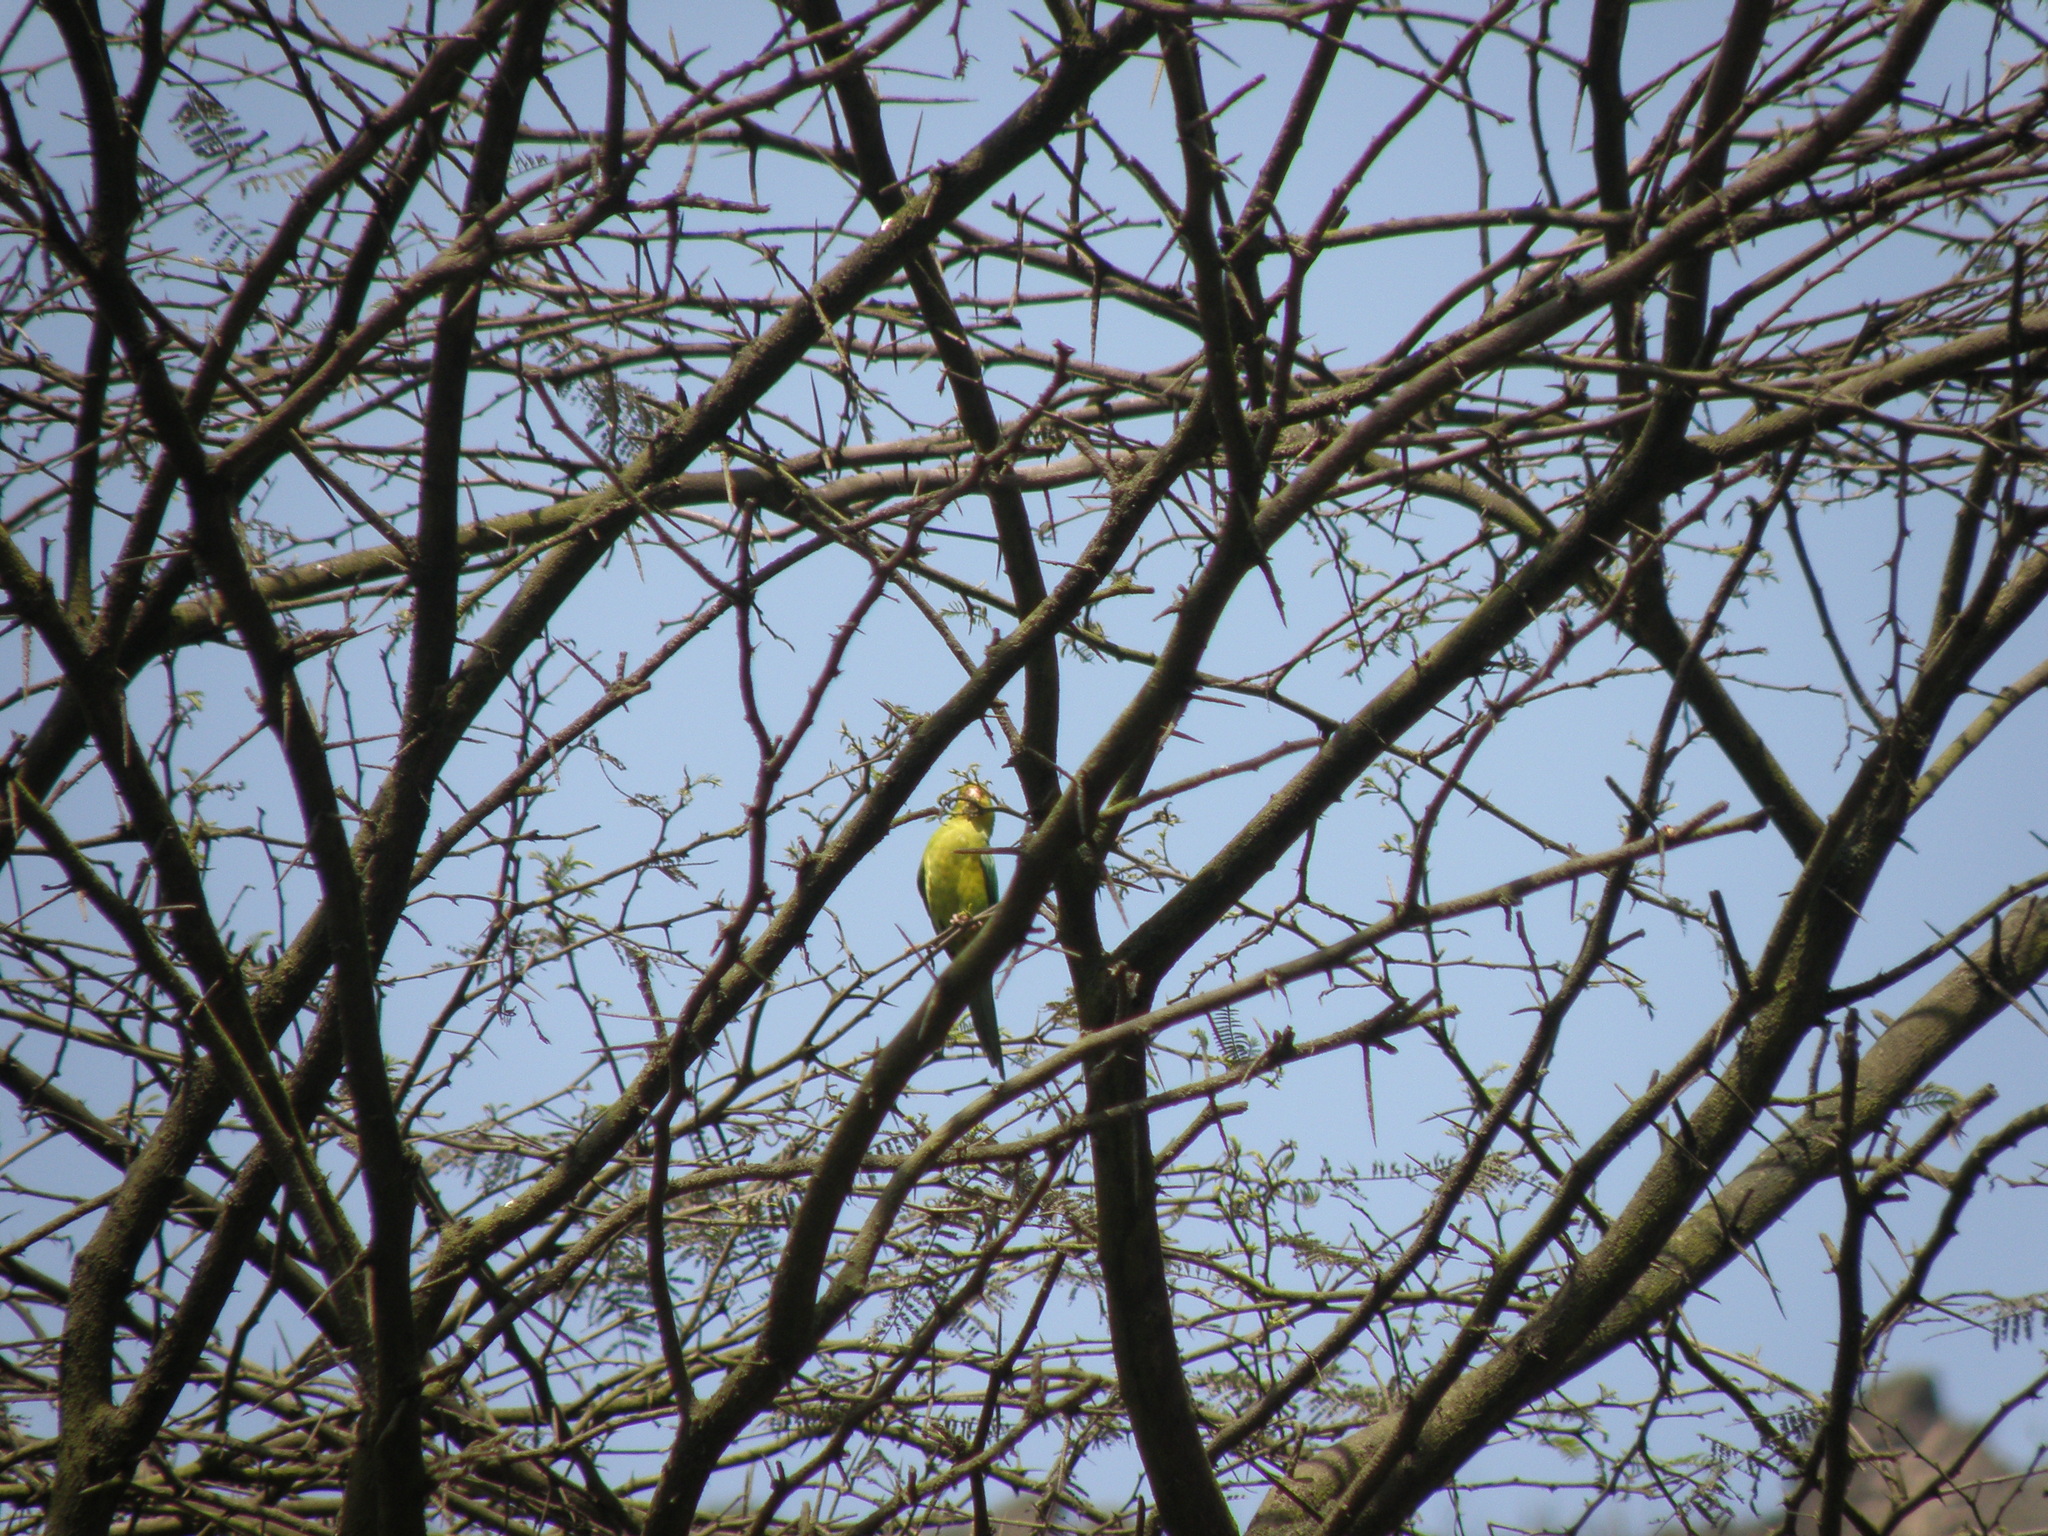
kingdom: Animalia
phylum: Chordata
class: Aves
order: Psittaciformes
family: Psittacidae
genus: Psilopsiagon
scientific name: Psilopsiagon aurifrons
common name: Mountain parakeet
